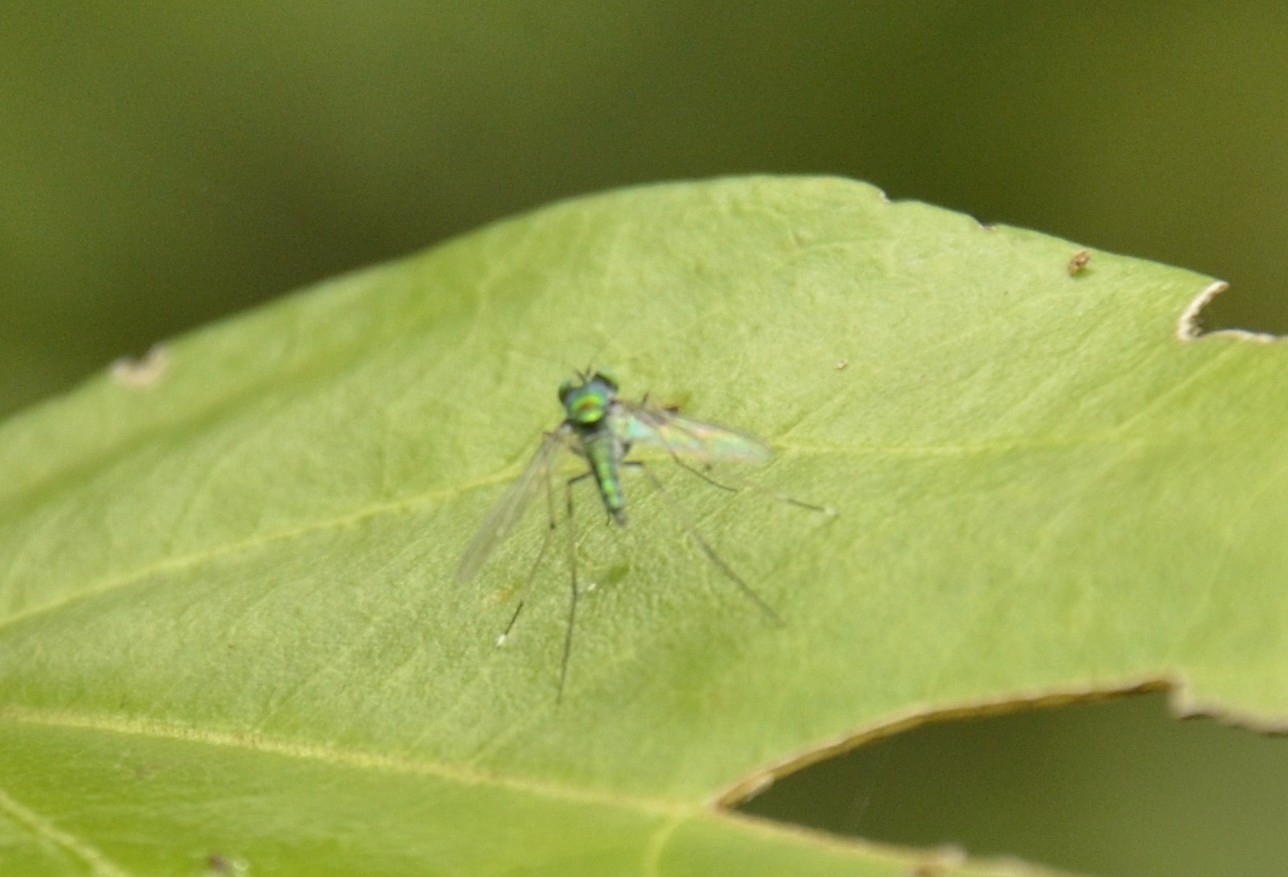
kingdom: Animalia
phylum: Arthropoda
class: Insecta
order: Diptera
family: Dolichopodidae
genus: Chrysosoma
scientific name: Chrysosoma leucopogon
